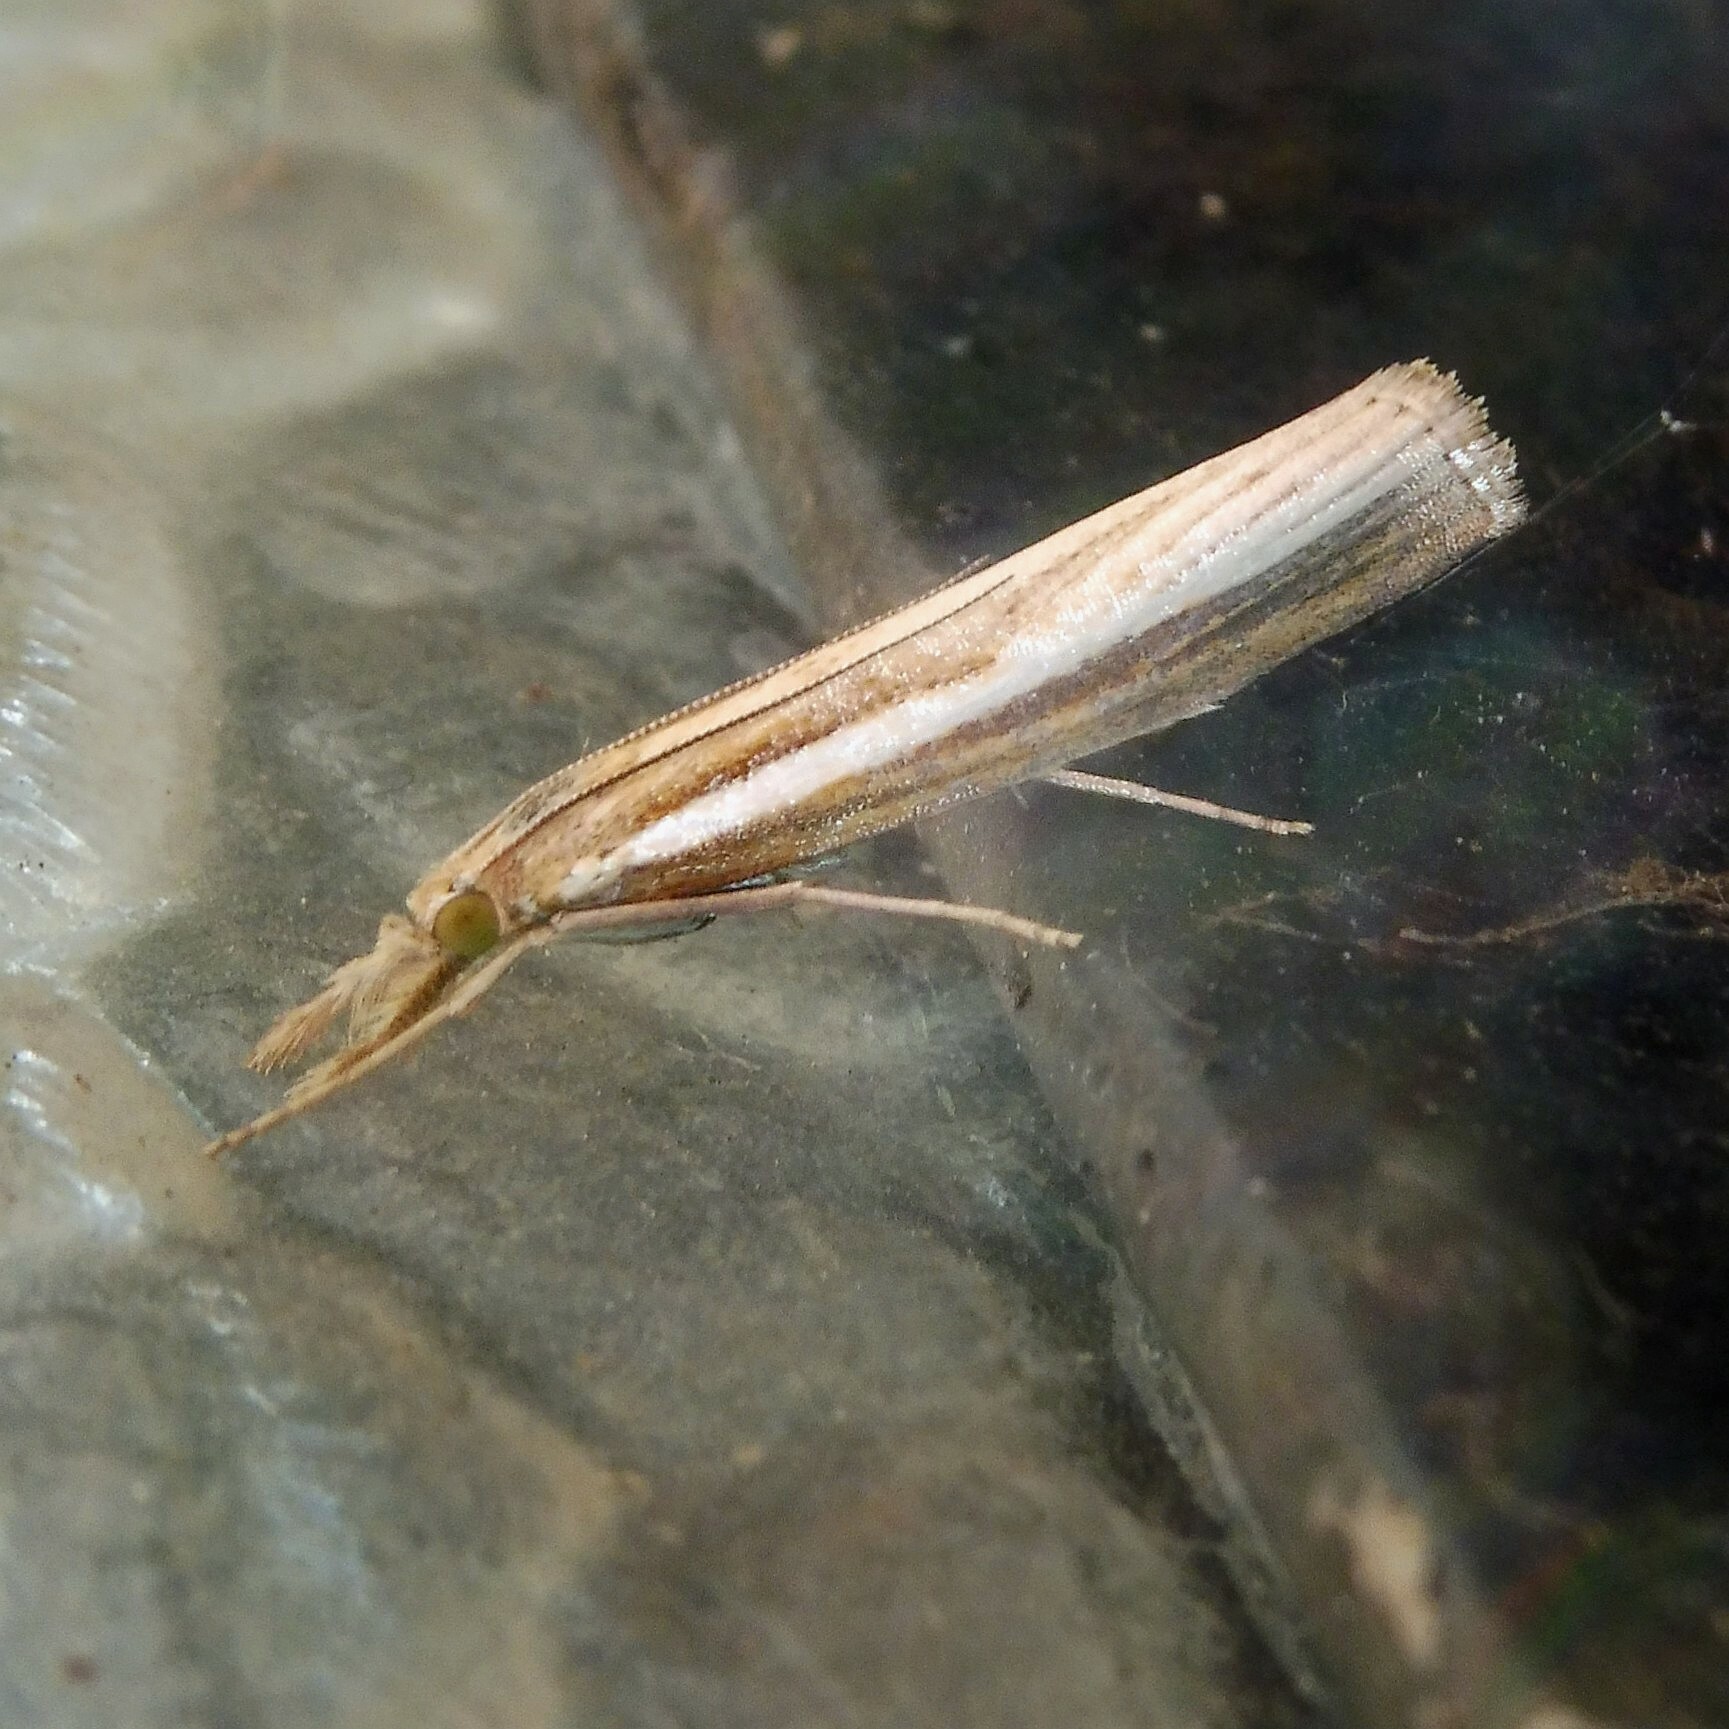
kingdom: Animalia
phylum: Arthropoda
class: Insecta
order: Lepidoptera
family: Crambidae
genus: Agriphila
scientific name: Agriphila tristellus
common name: Common grass-veneer
